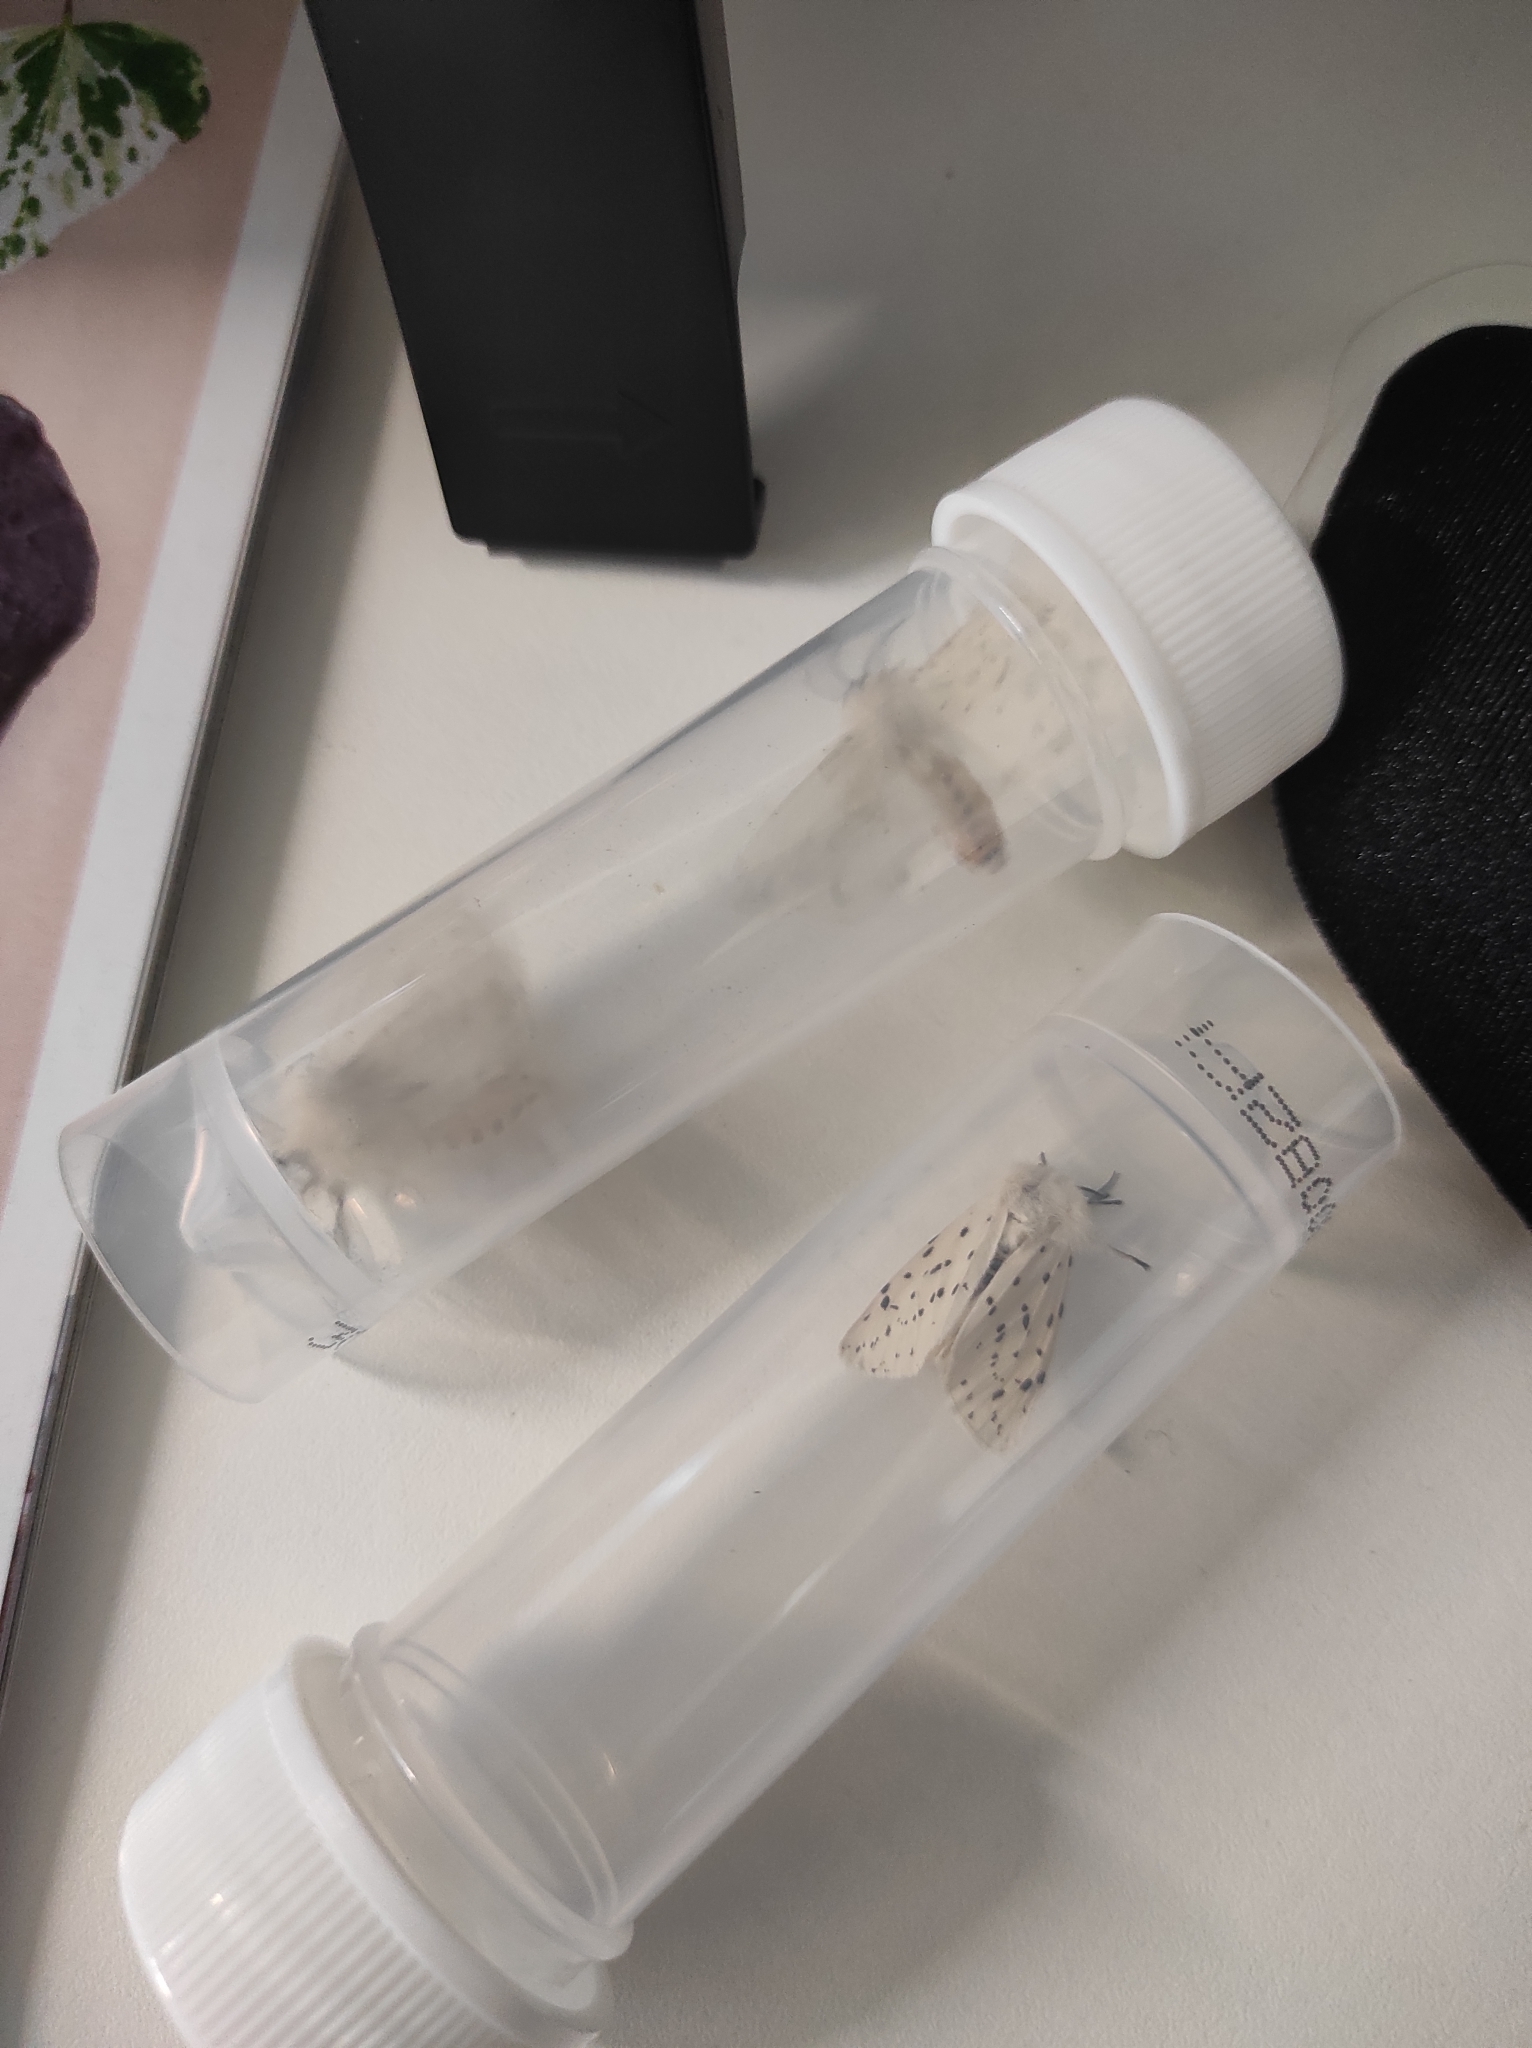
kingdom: Animalia
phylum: Arthropoda
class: Insecta
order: Lepidoptera
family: Erebidae
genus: Spilosoma
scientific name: Spilosoma lubricipeda
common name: White ermine
